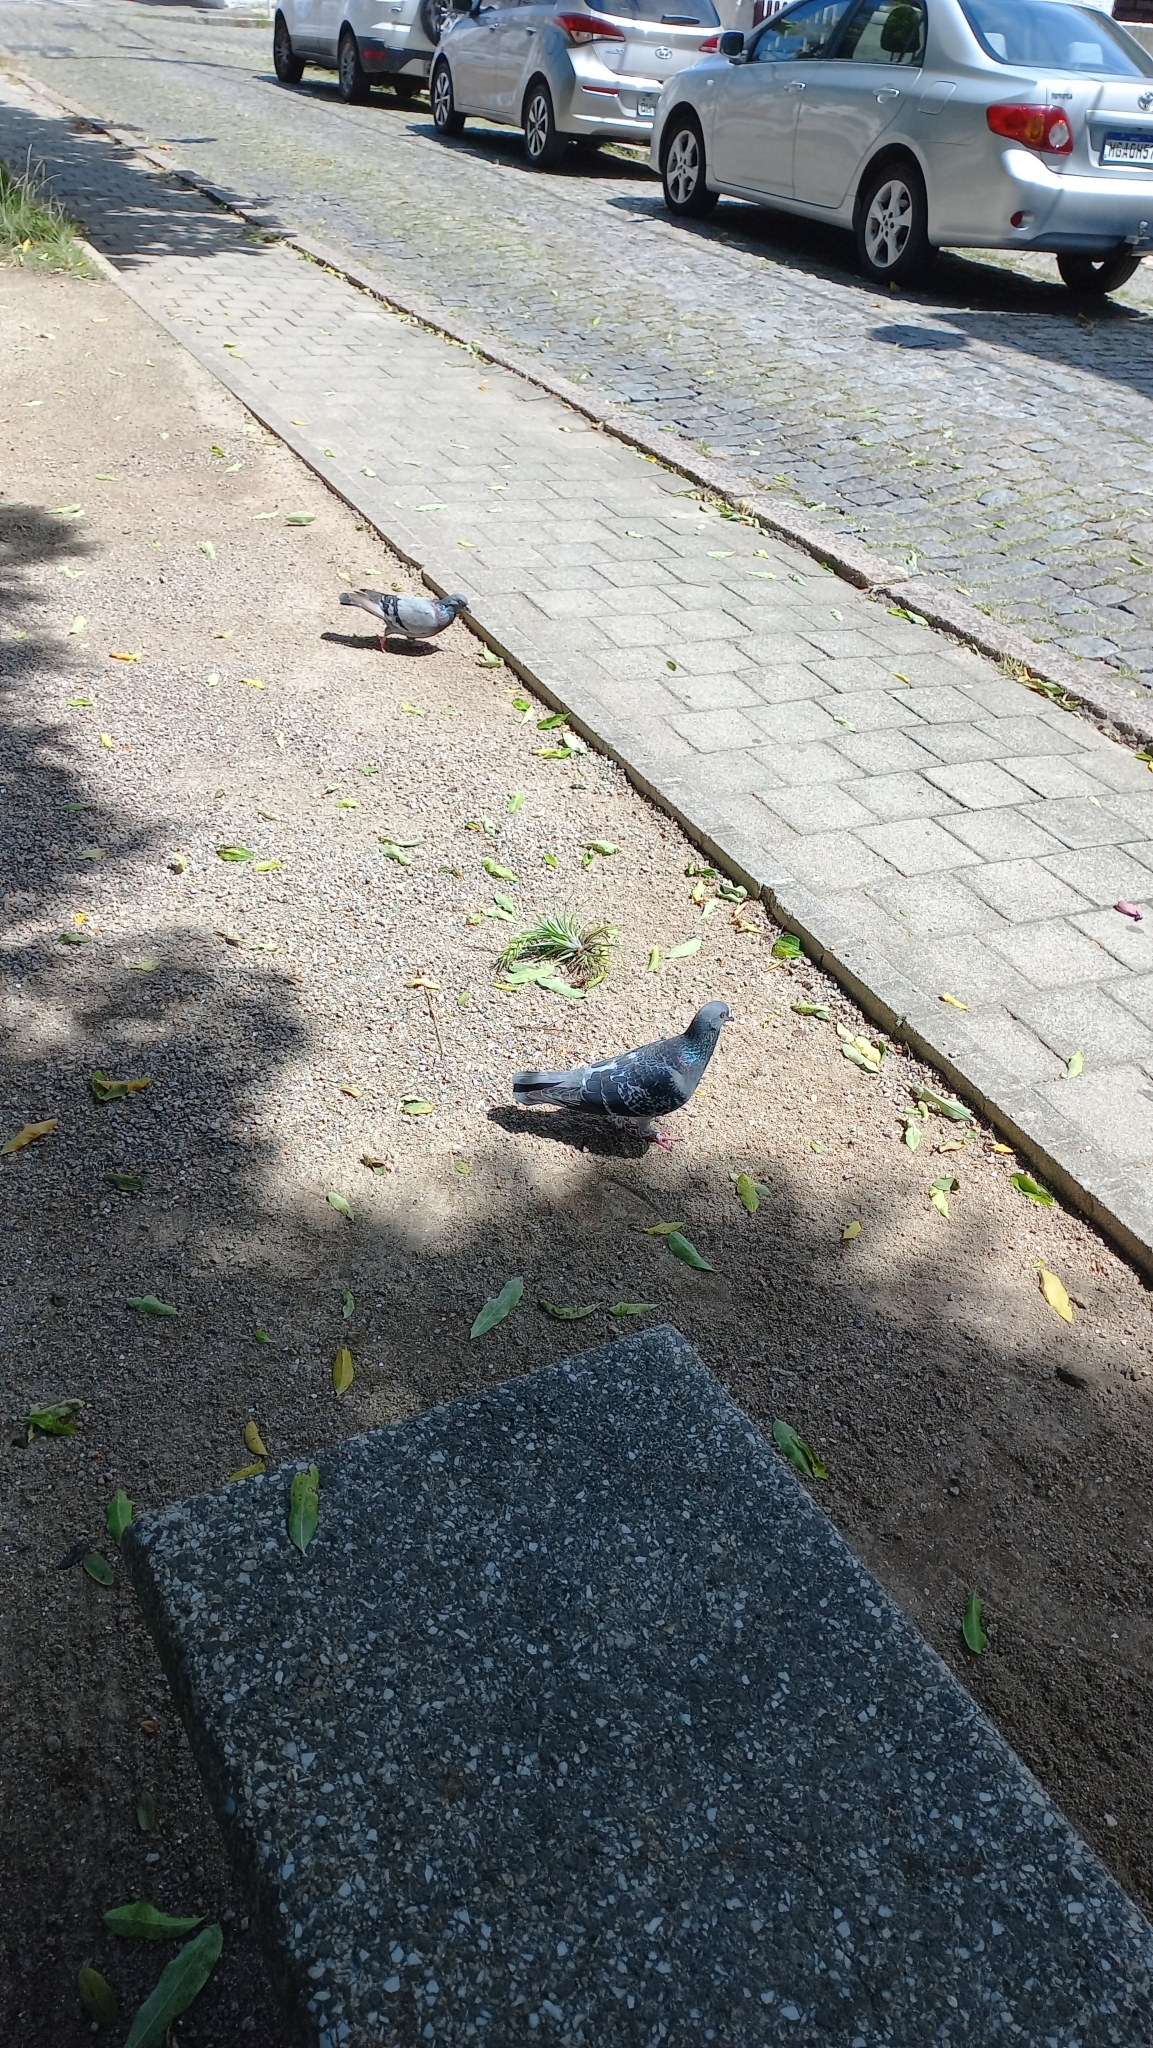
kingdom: Animalia
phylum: Chordata
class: Aves
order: Columbiformes
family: Columbidae
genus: Columba
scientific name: Columba livia
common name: Rock pigeon
